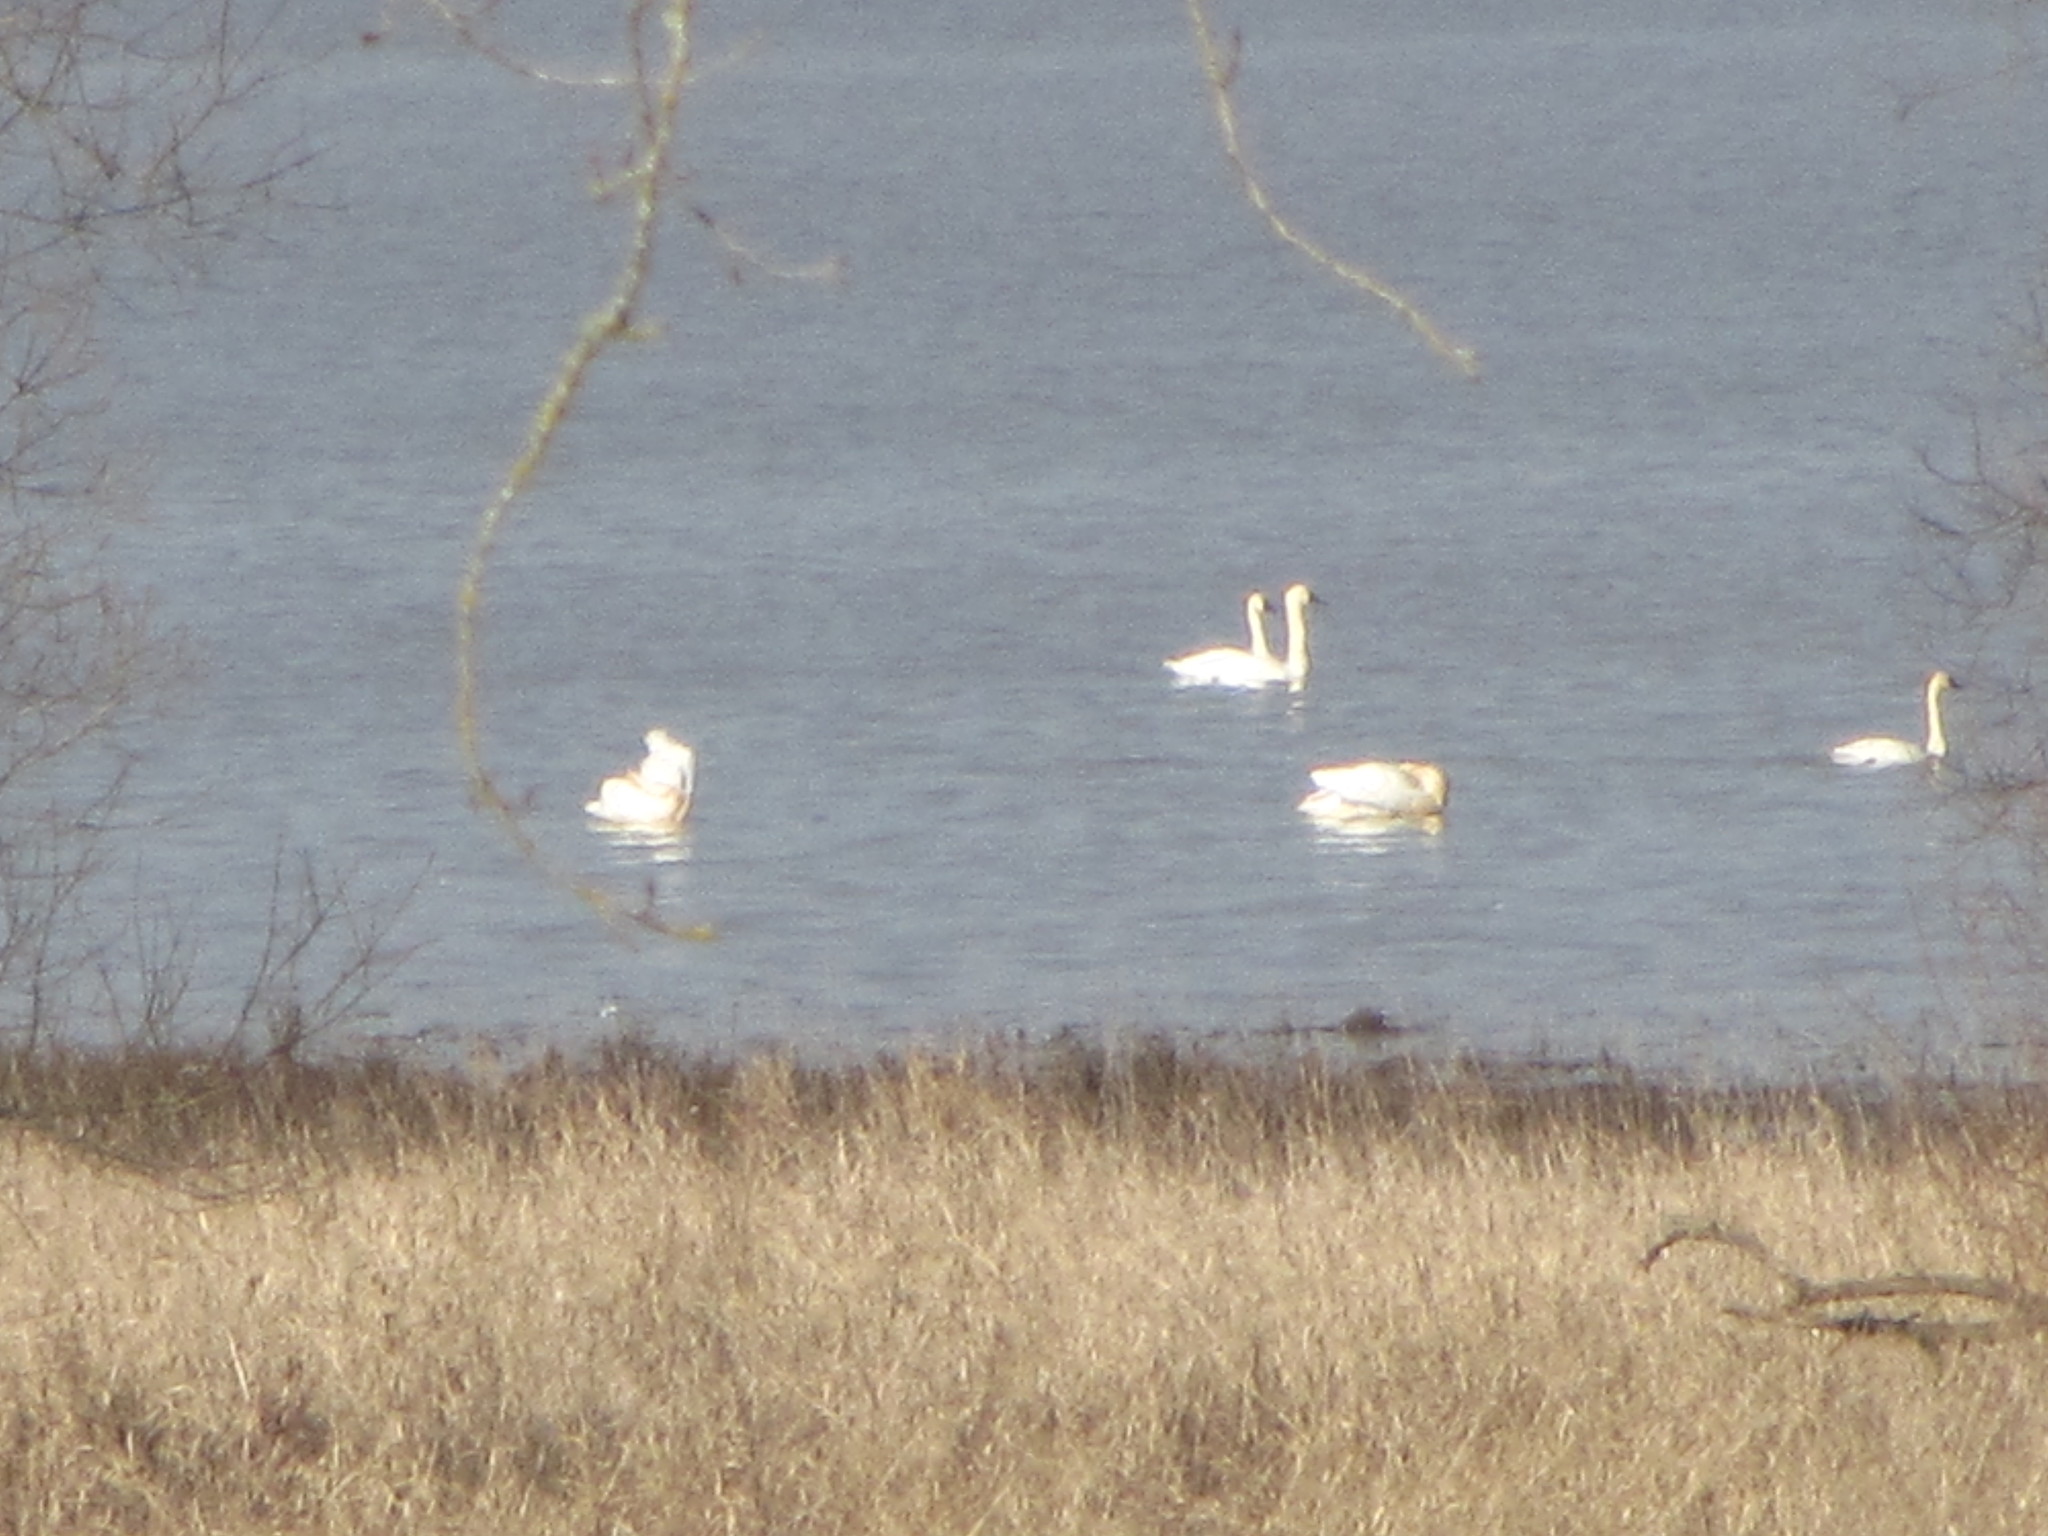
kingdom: Animalia
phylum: Chordata
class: Aves
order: Anseriformes
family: Anatidae
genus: Cygnus
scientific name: Cygnus columbianus
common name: Tundra swan
